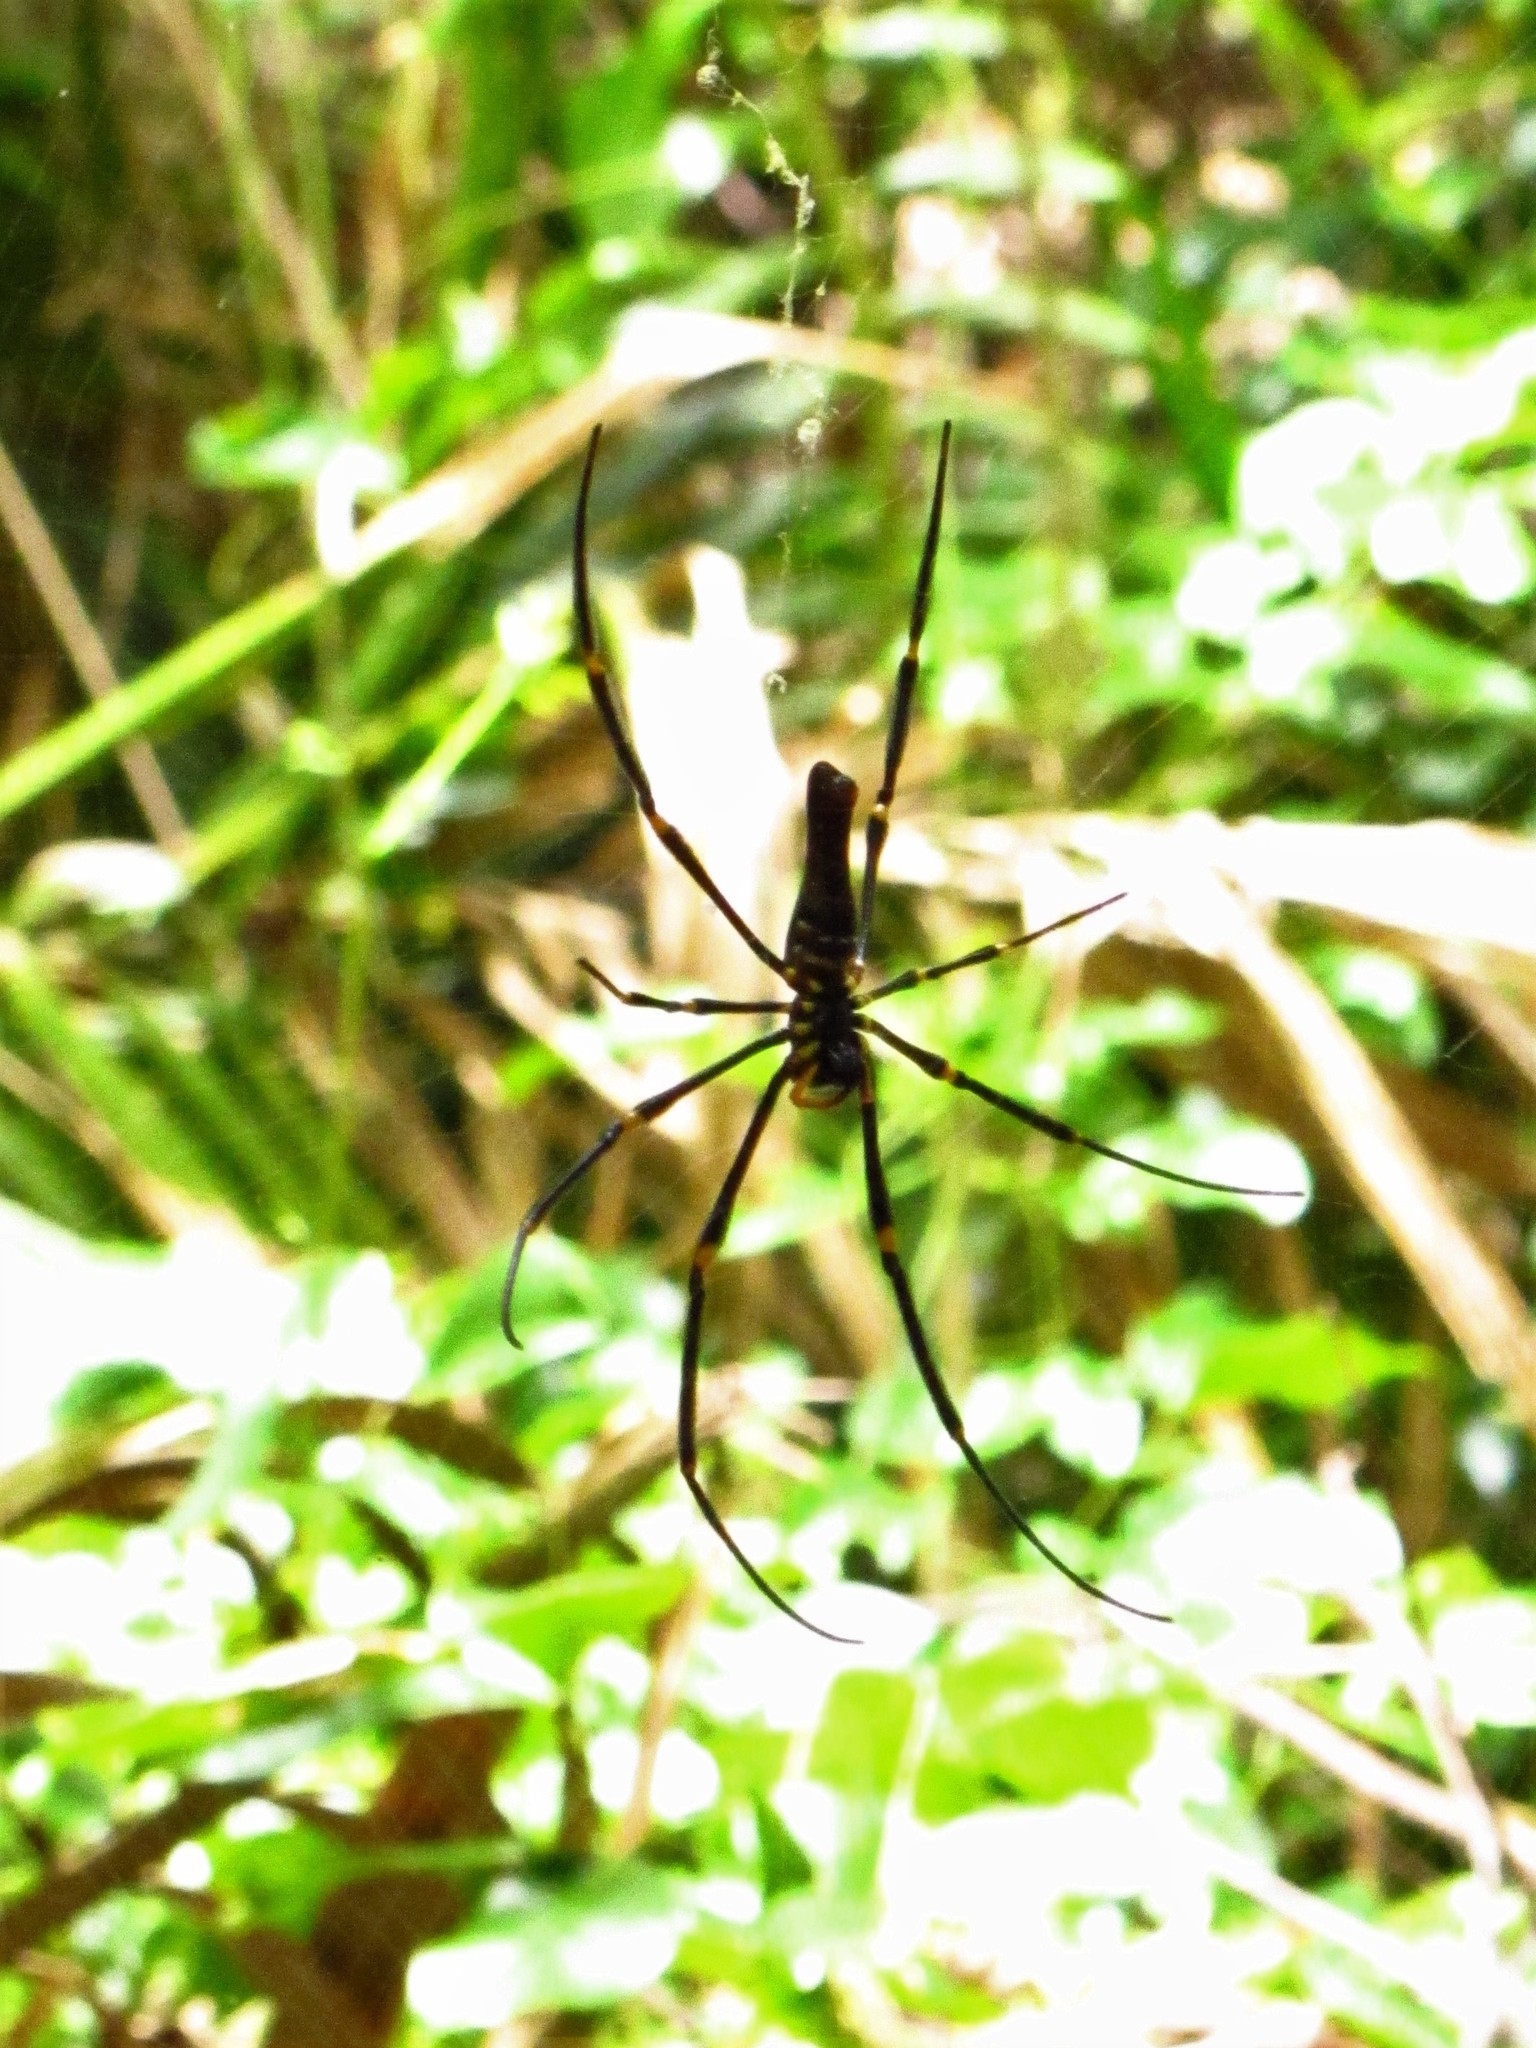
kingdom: Animalia
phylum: Arthropoda
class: Arachnida
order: Araneae
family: Araneidae
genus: Nephila
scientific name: Nephila pilipes
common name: Giant golden orb weaver
